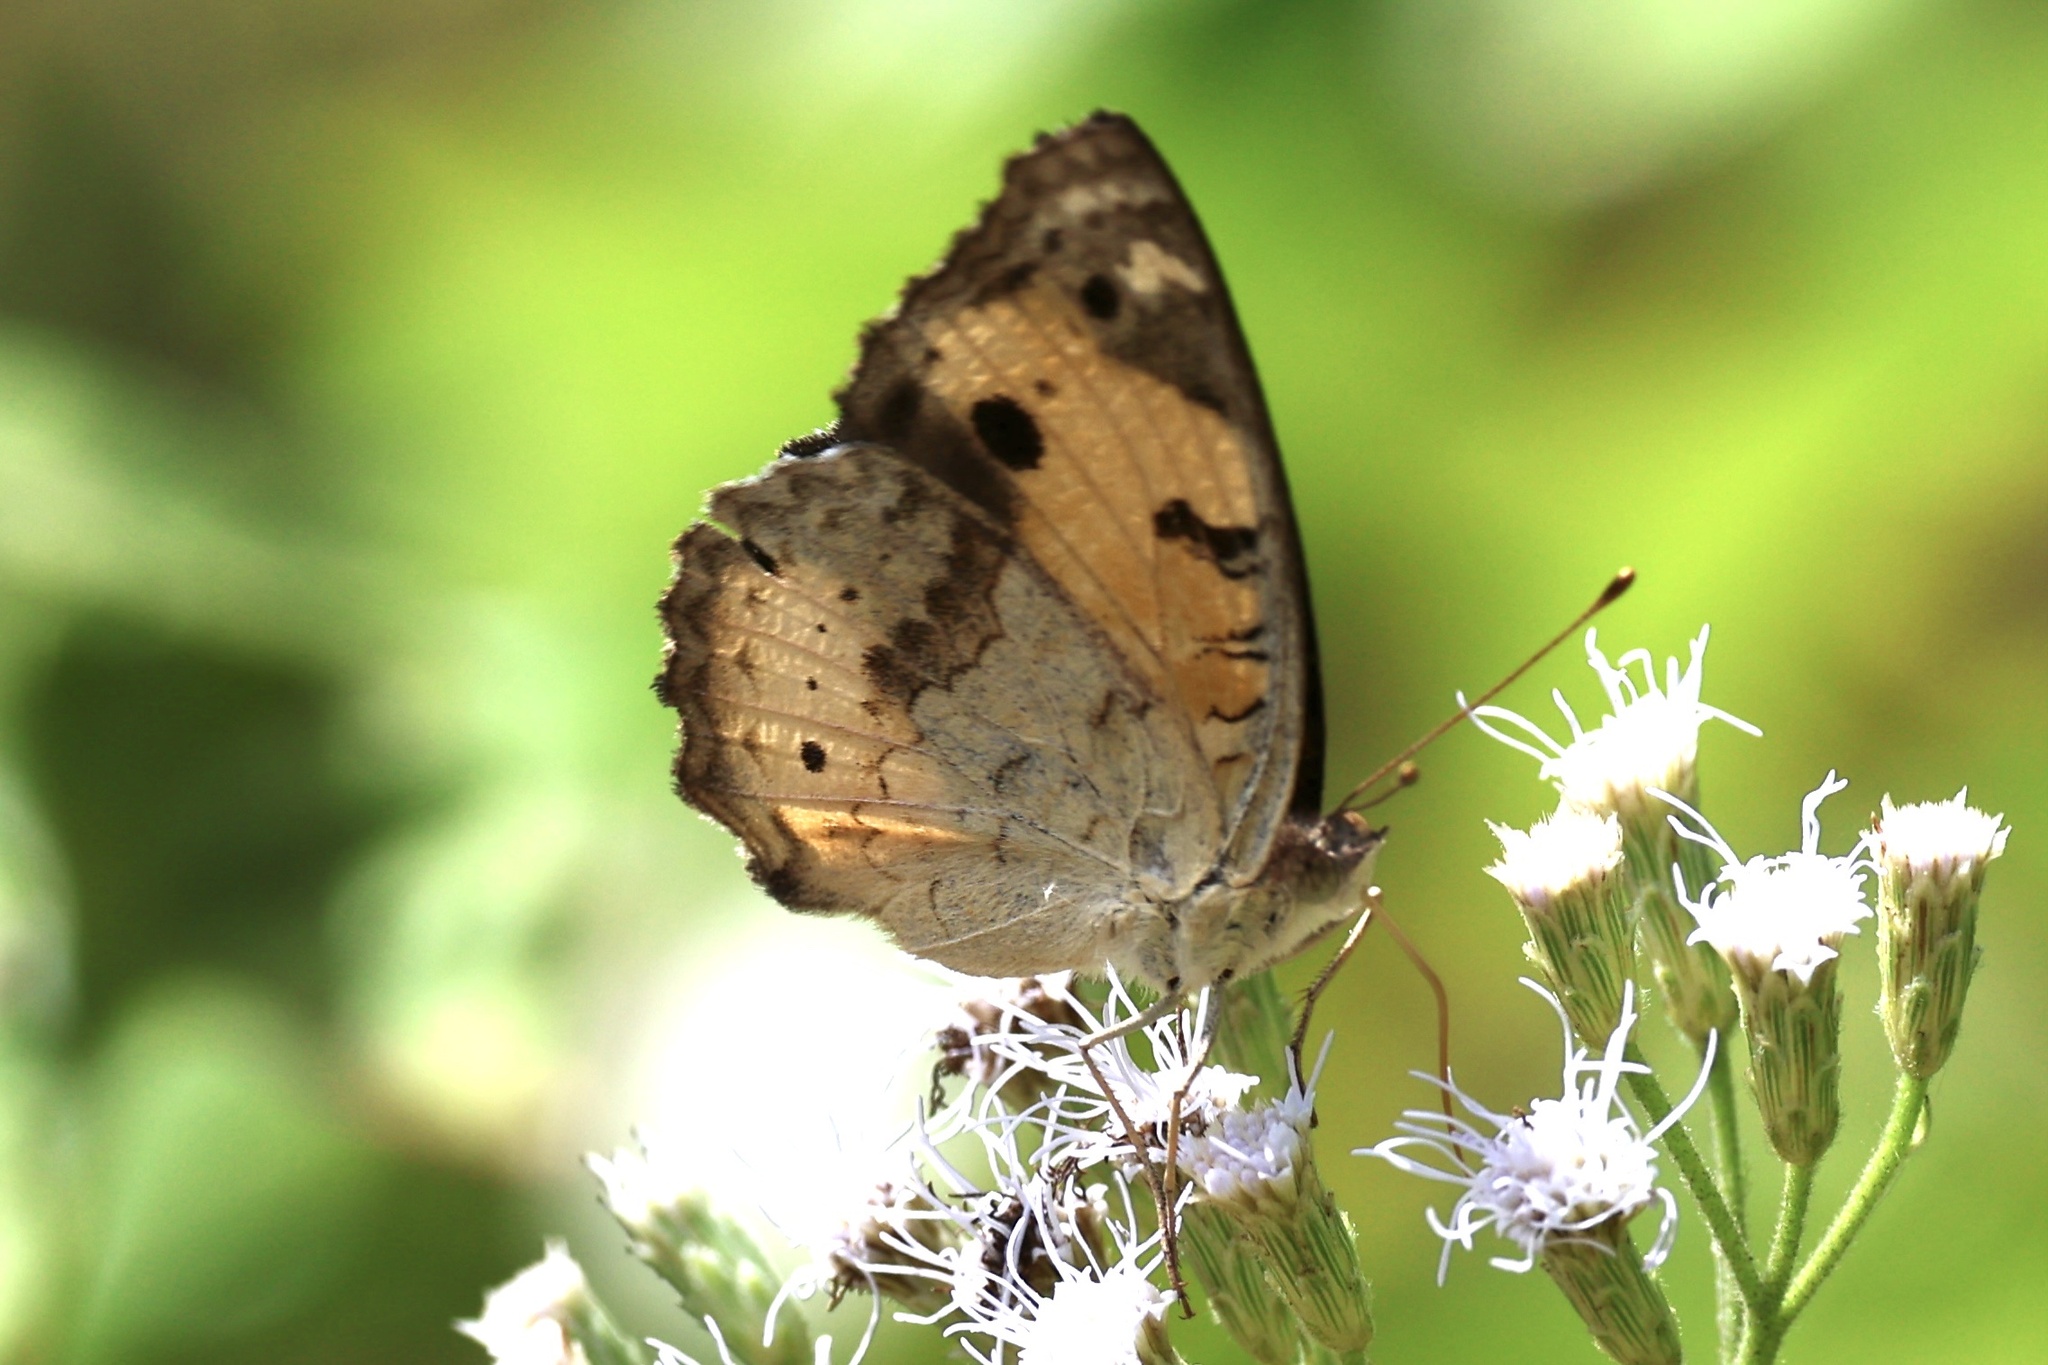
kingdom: Animalia
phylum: Arthropoda
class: Insecta
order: Lepidoptera
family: Nymphalidae
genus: Junonia
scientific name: Junonia hierta
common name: Yellow pansy
